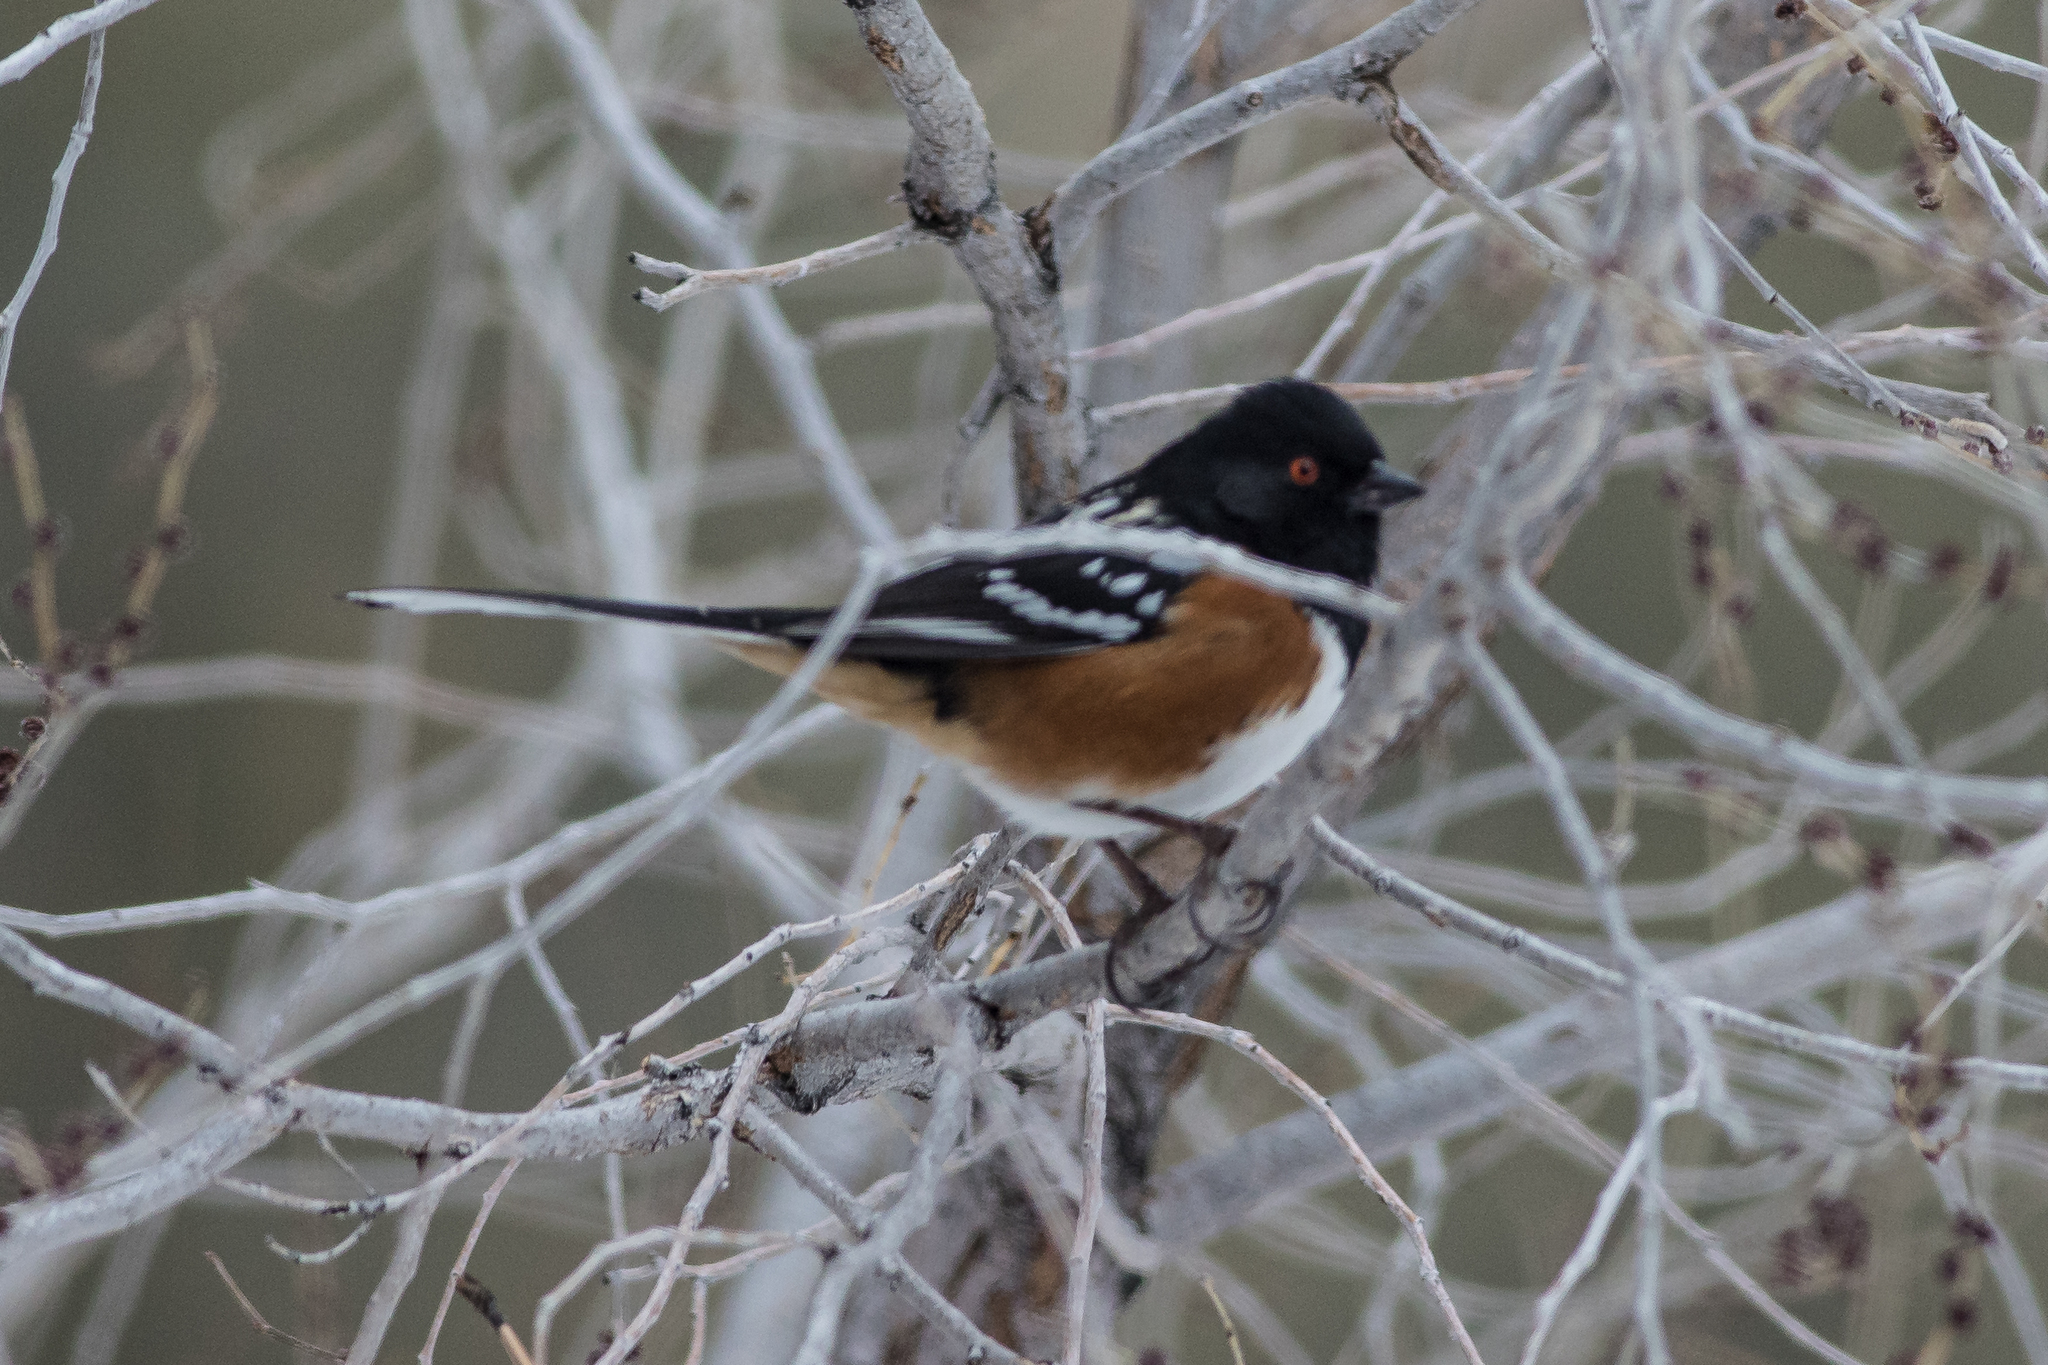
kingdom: Animalia
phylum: Chordata
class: Aves
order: Passeriformes
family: Passerellidae
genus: Pipilo
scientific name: Pipilo maculatus
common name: Spotted towhee
